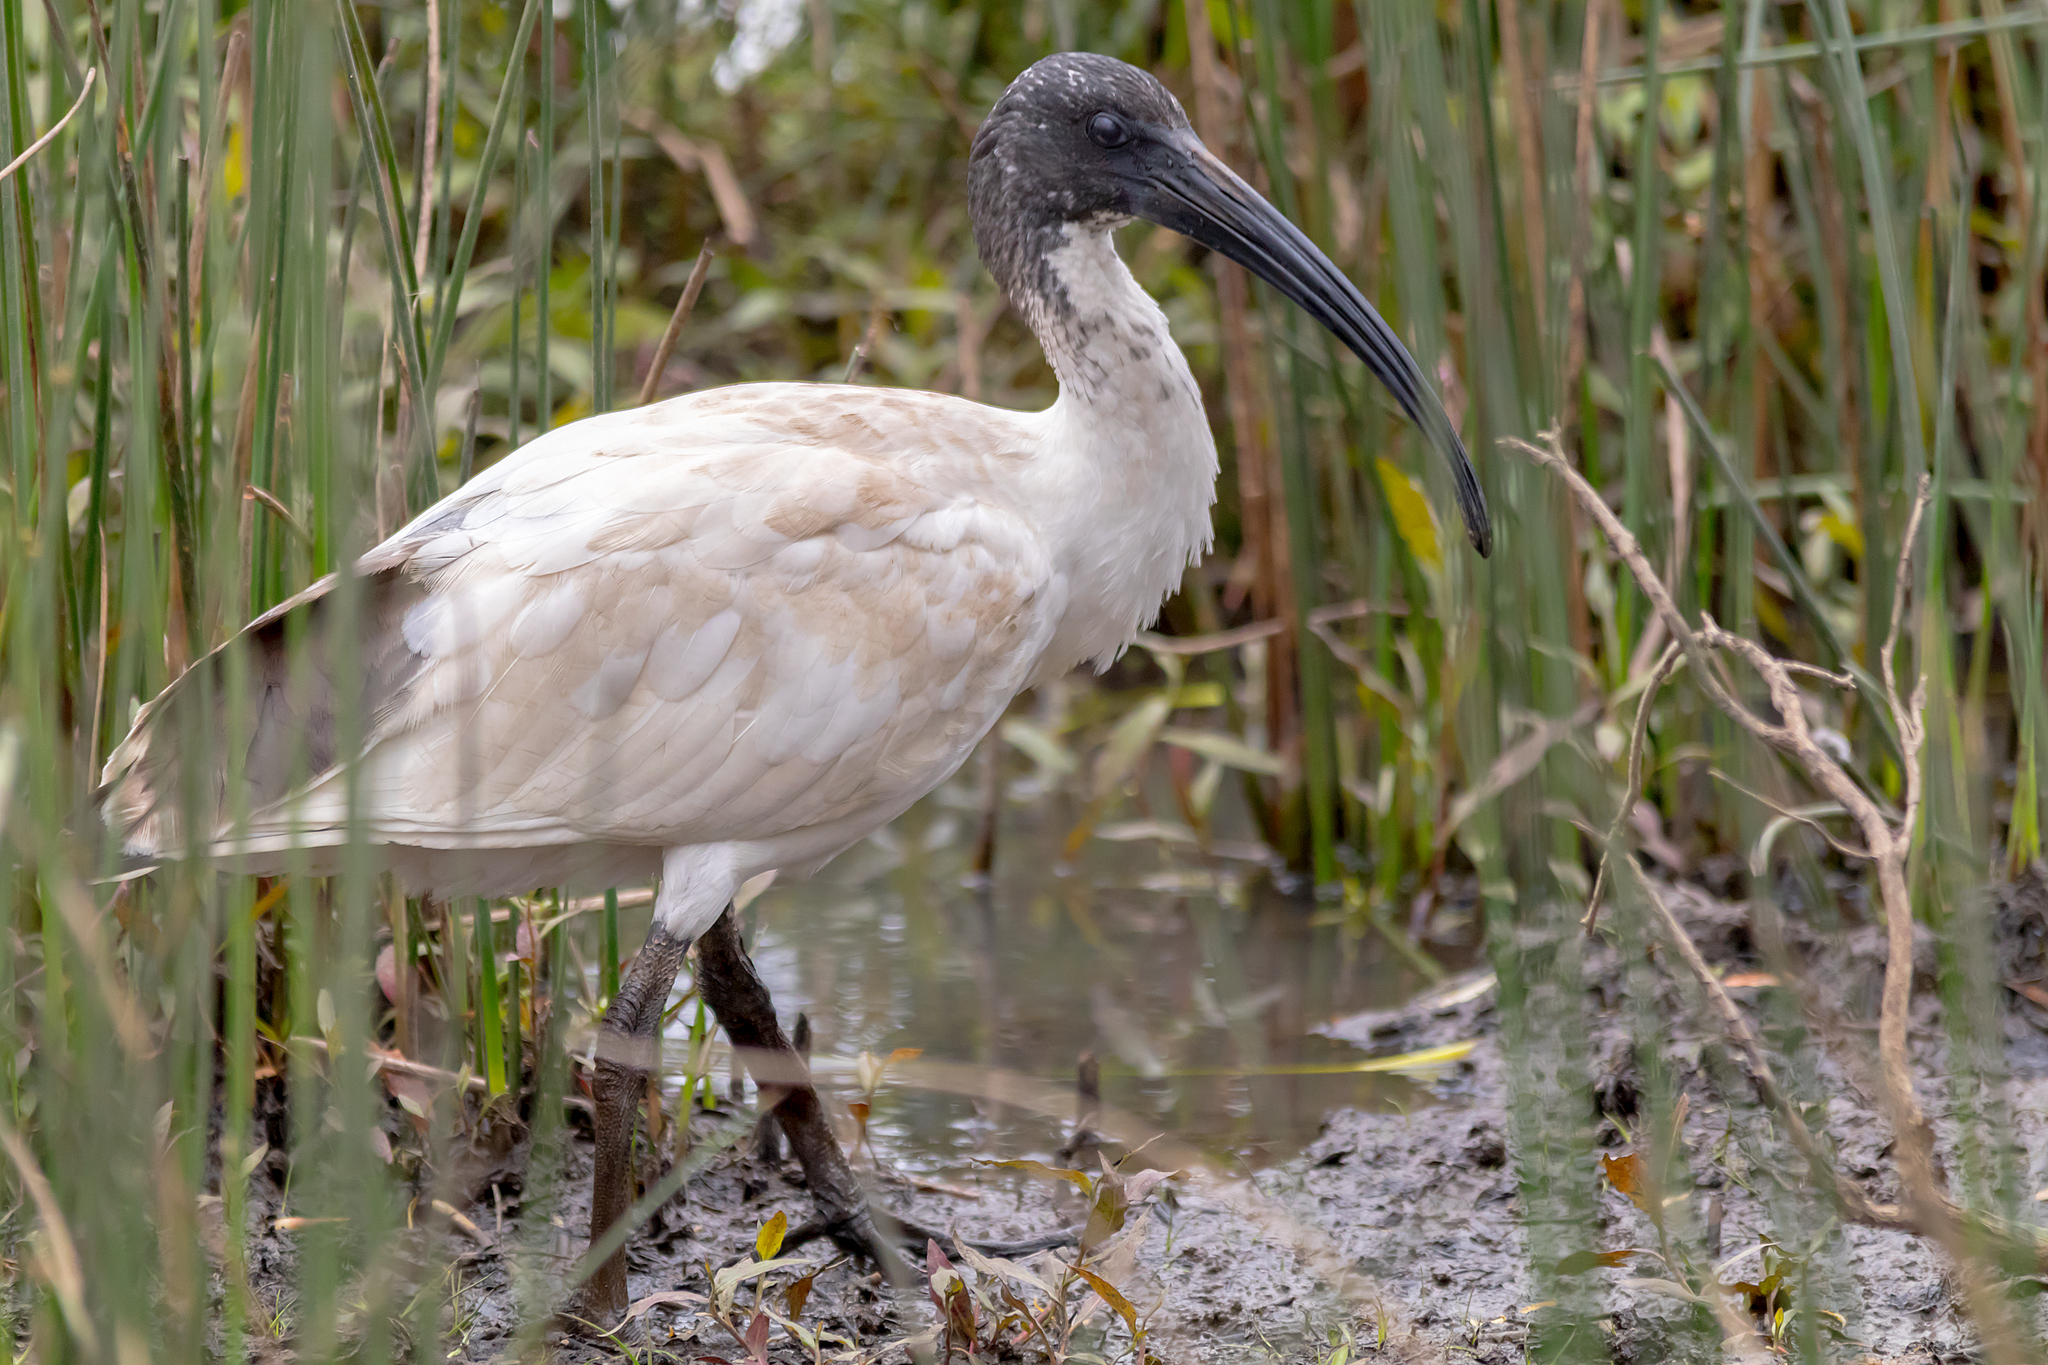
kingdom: Animalia
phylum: Chordata
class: Aves
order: Pelecaniformes
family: Threskiornithidae
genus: Threskiornis
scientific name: Threskiornis molucca
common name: Australian white ibis
